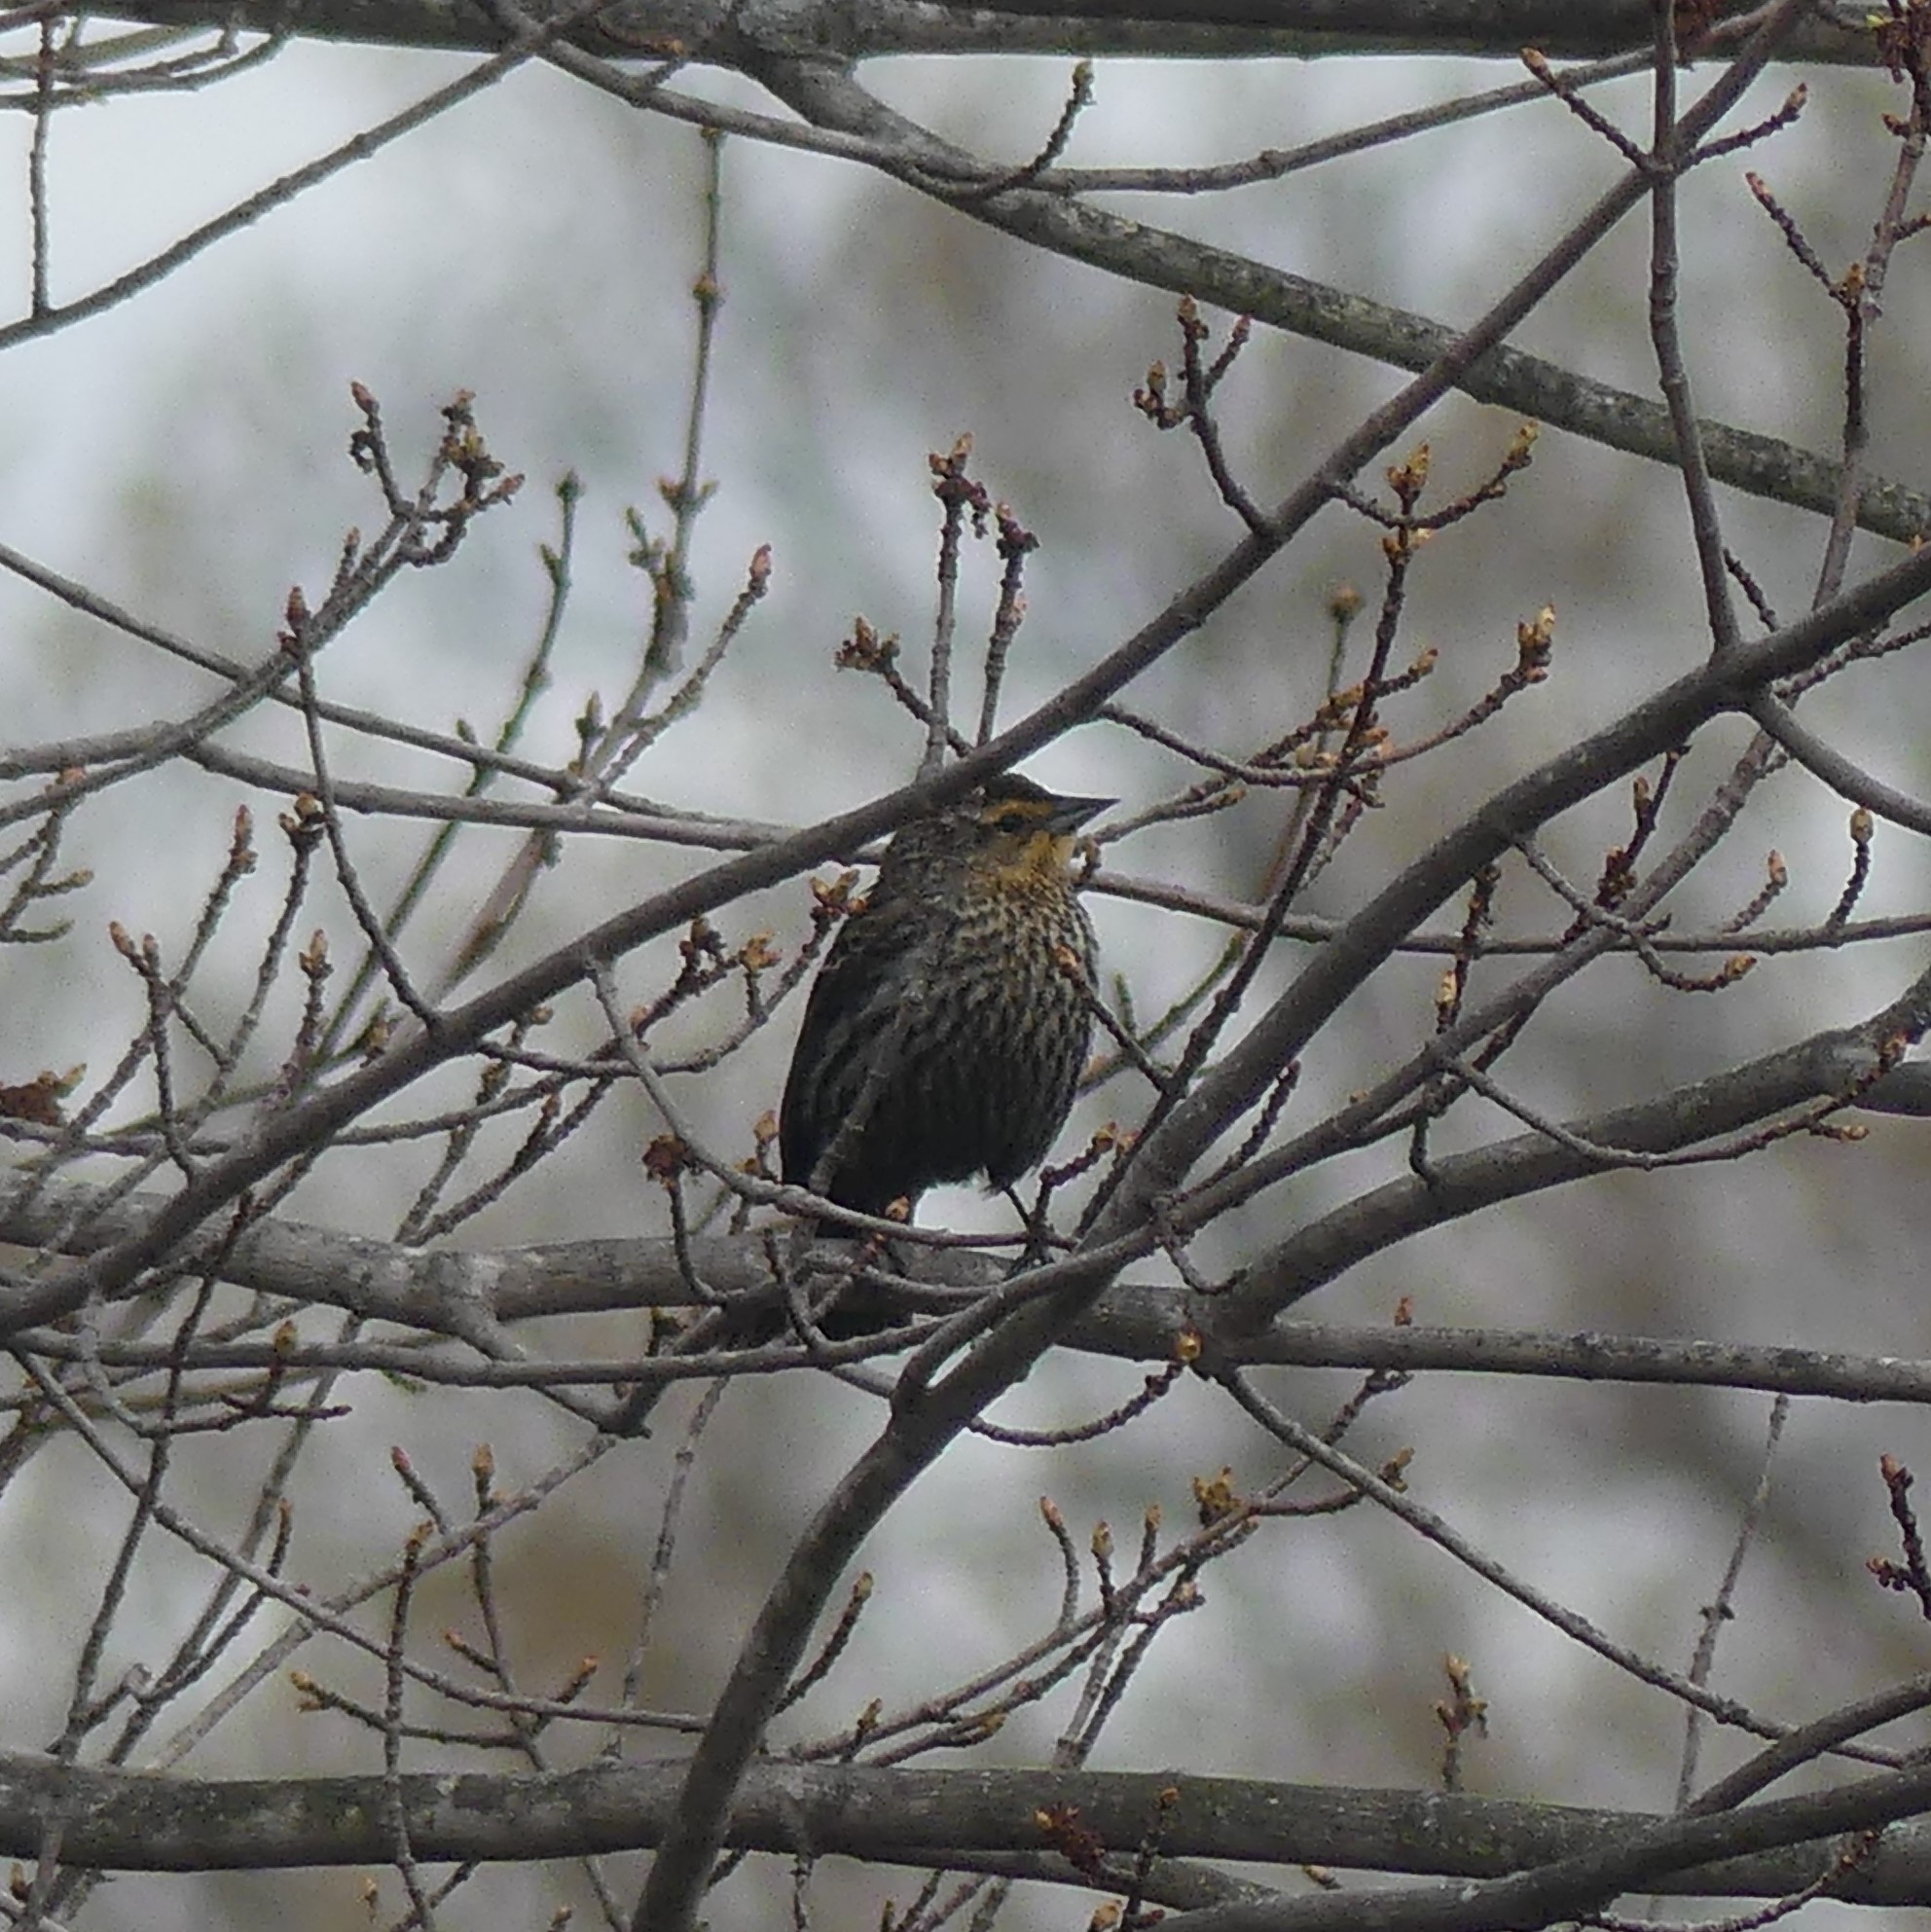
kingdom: Animalia
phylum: Chordata
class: Aves
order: Passeriformes
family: Icteridae
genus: Agelaius
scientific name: Agelaius phoeniceus
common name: Red-winged blackbird
